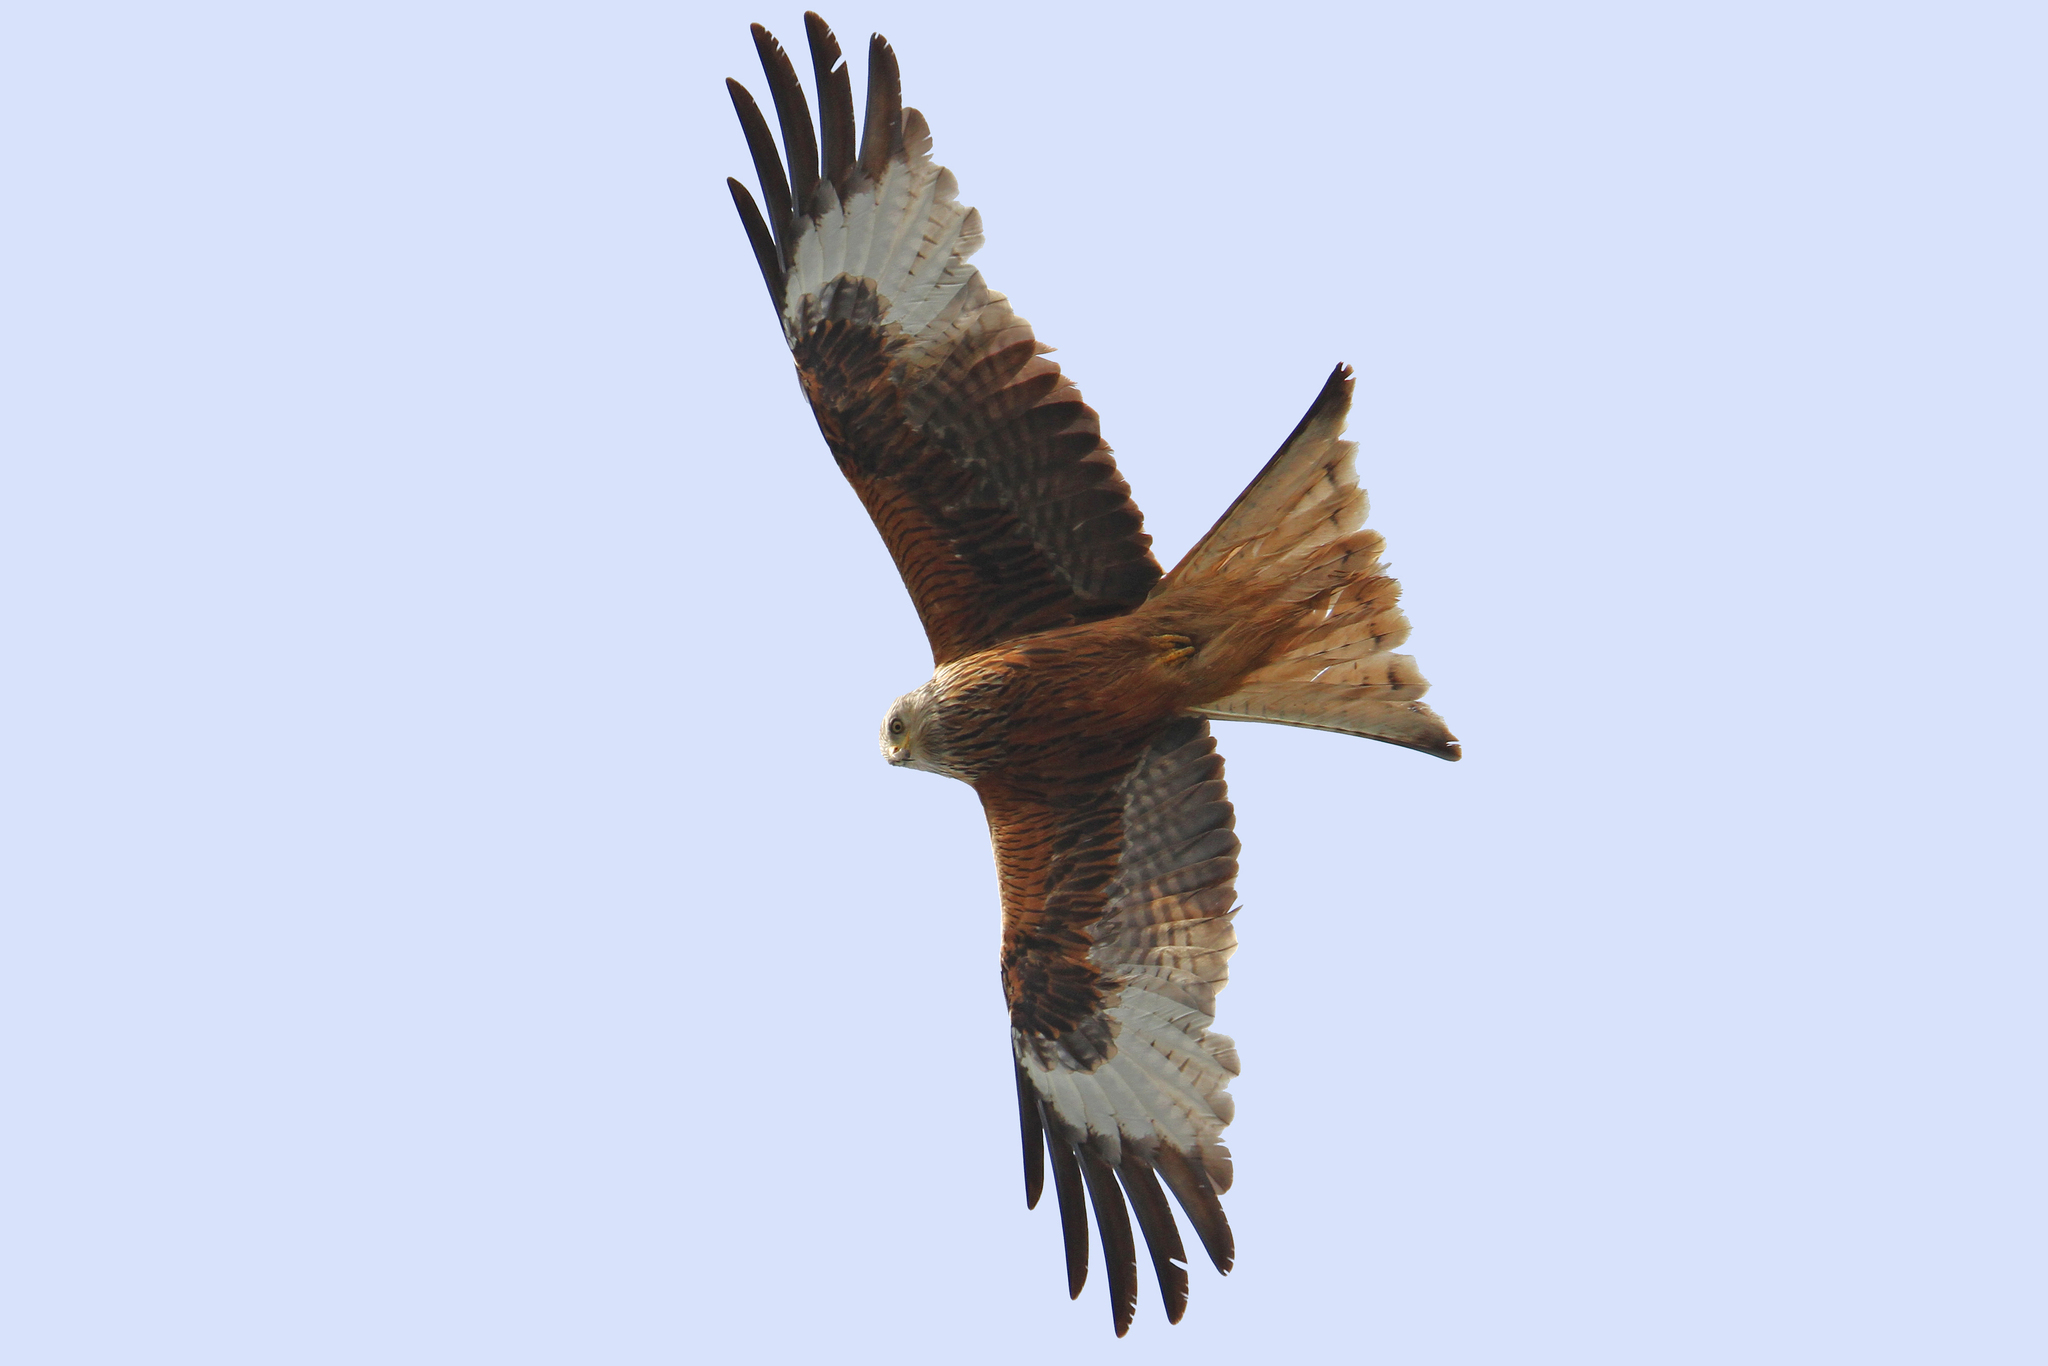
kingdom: Animalia
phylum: Chordata
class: Aves
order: Accipitriformes
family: Accipitridae
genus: Milvus
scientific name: Milvus milvus
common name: Red kite
